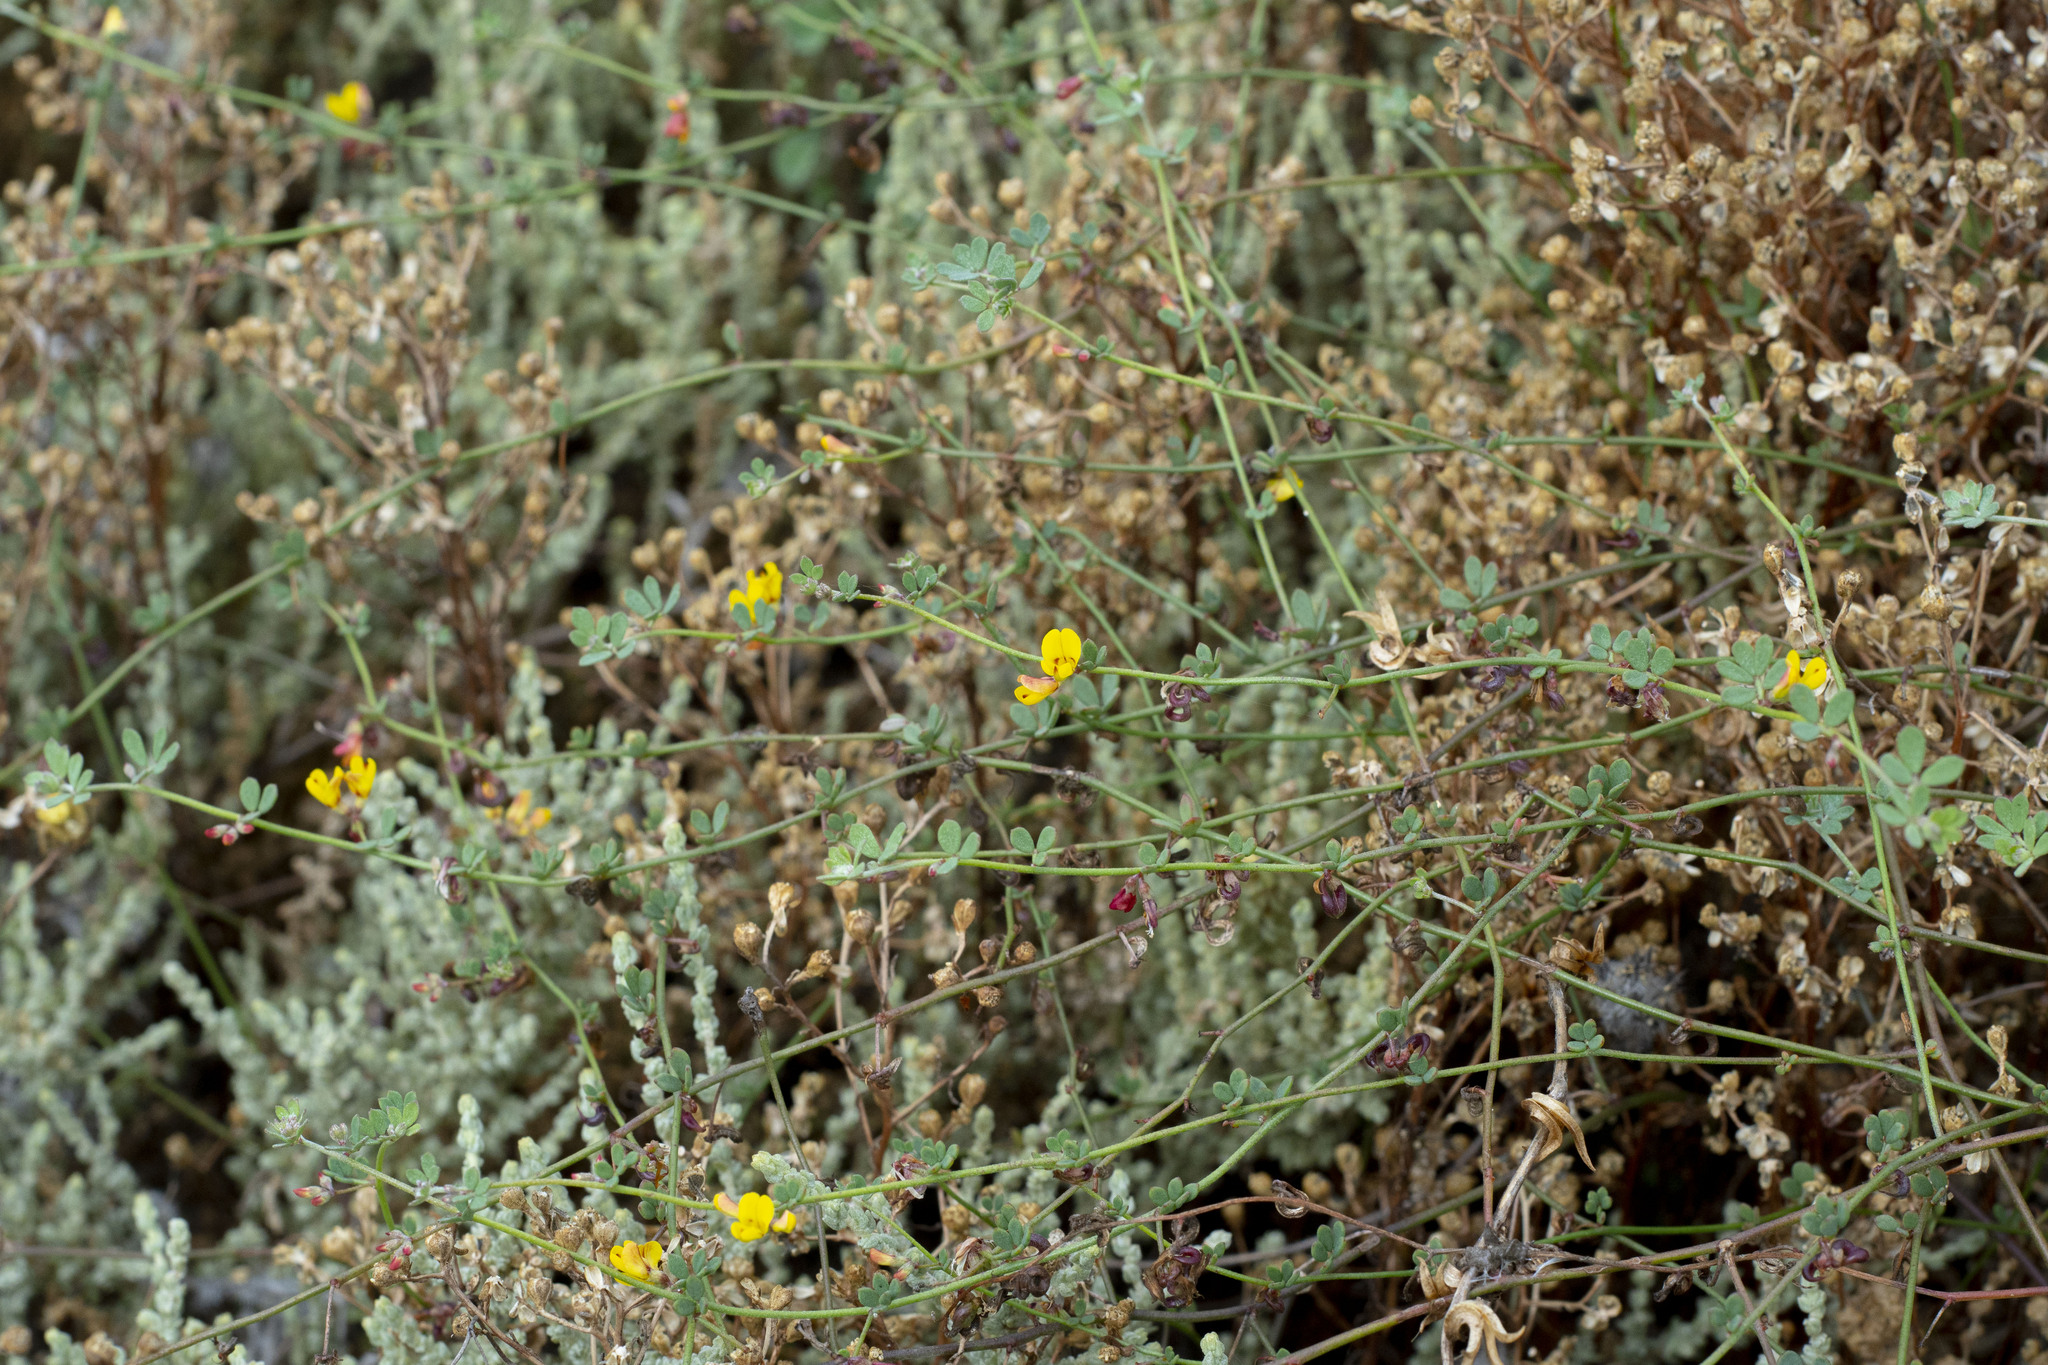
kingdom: Plantae
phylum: Tracheophyta
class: Magnoliopsida
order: Fabales
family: Fabaceae
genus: Acmispon
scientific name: Acmispon prostratus
